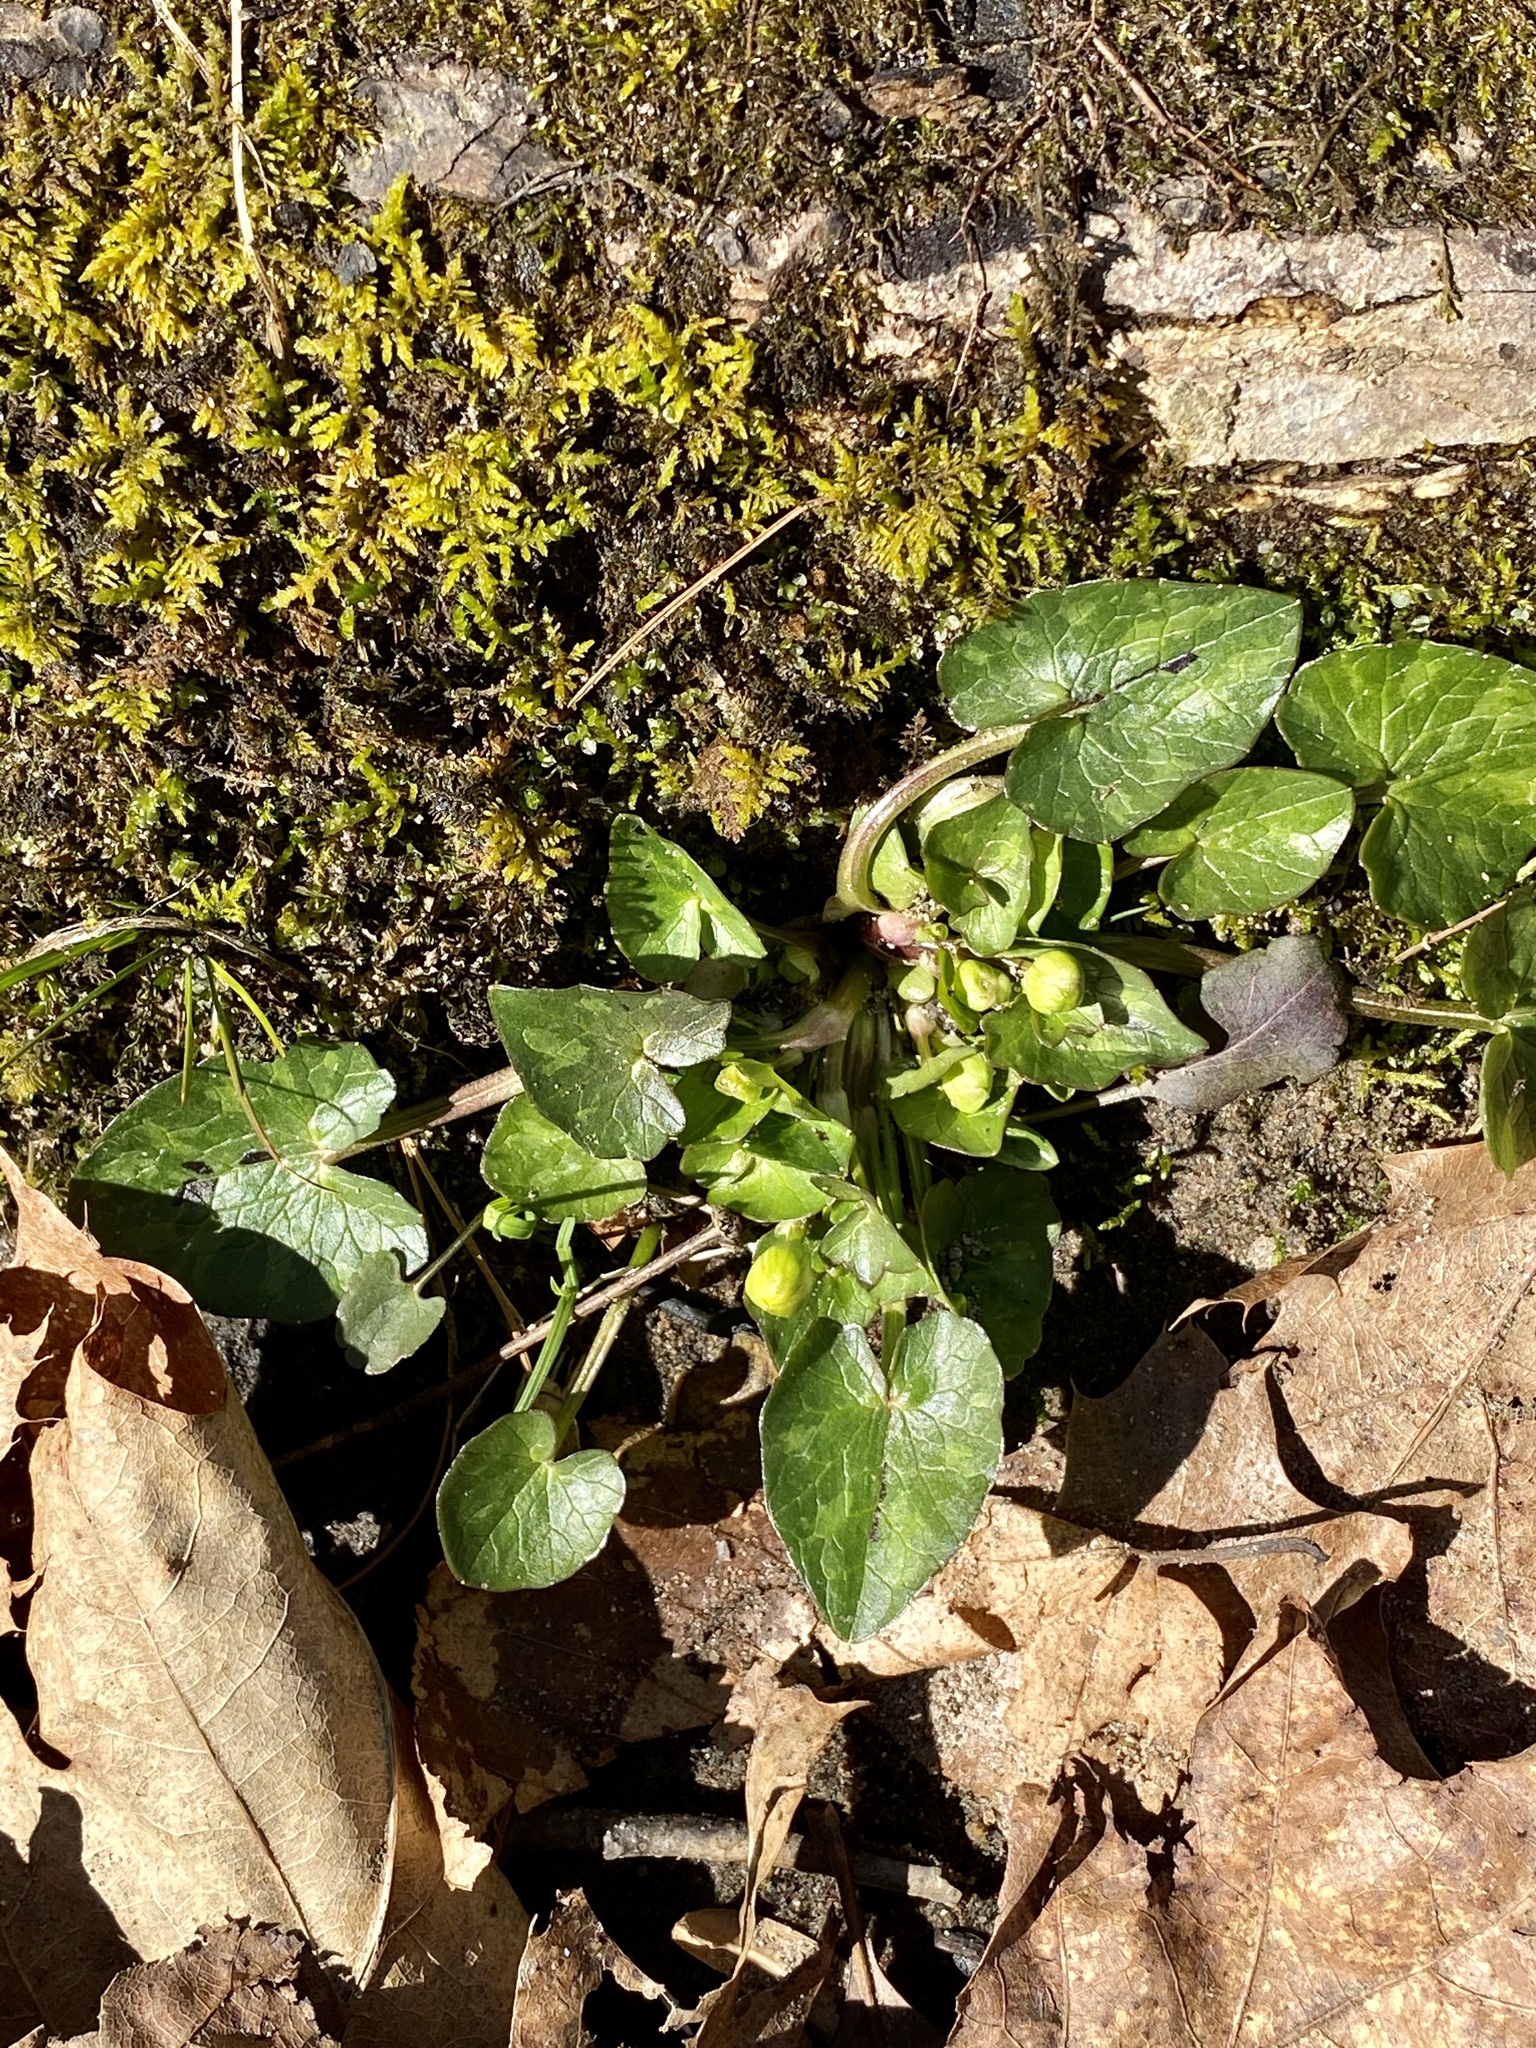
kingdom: Plantae
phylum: Tracheophyta
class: Magnoliopsida
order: Ranunculales
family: Ranunculaceae
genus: Ficaria
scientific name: Ficaria verna
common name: Lesser celandine
